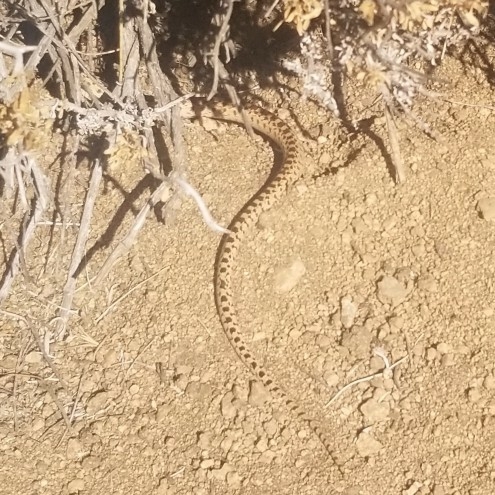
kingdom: Animalia
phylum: Chordata
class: Squamata
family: Colubridae
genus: Pituophis
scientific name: Pituophis catenifer
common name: Gopher snake
